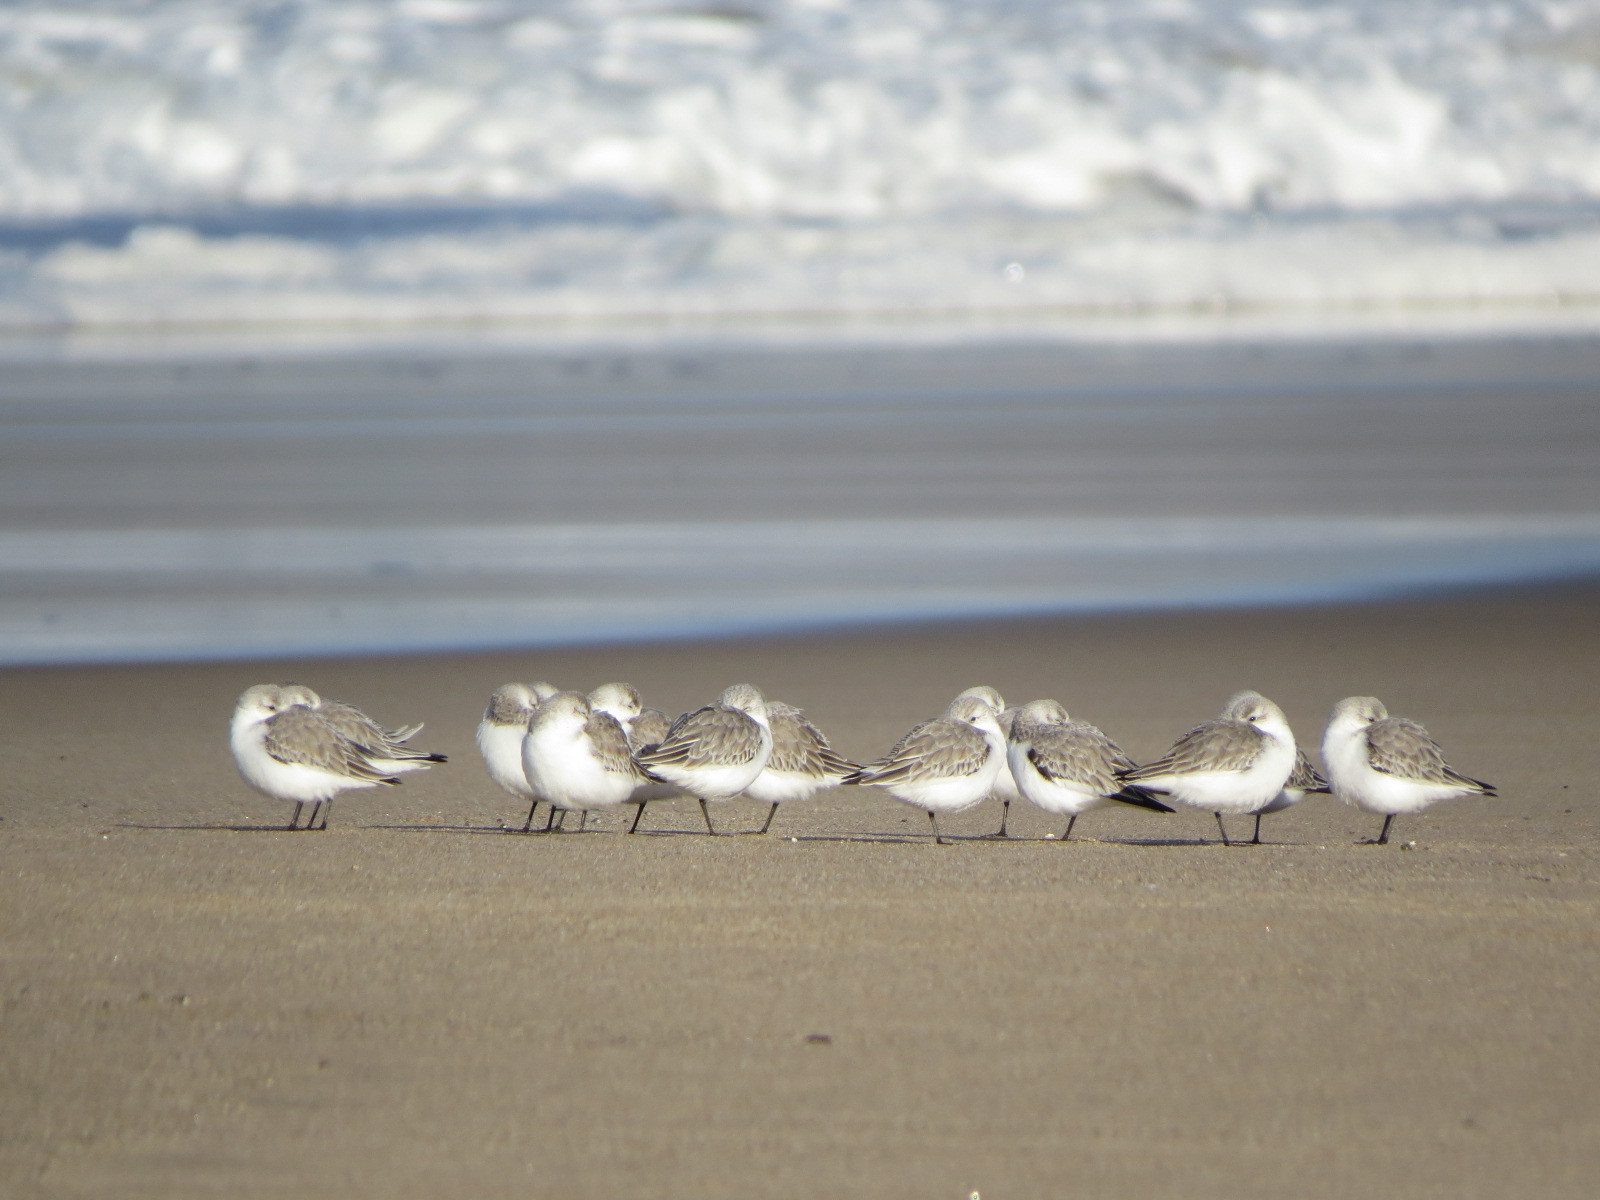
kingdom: Animalia
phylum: Chordata
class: Aves
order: Charadriiformes
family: Scolopacidae
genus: Calidris
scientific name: Calidris alba
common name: Sanderling
